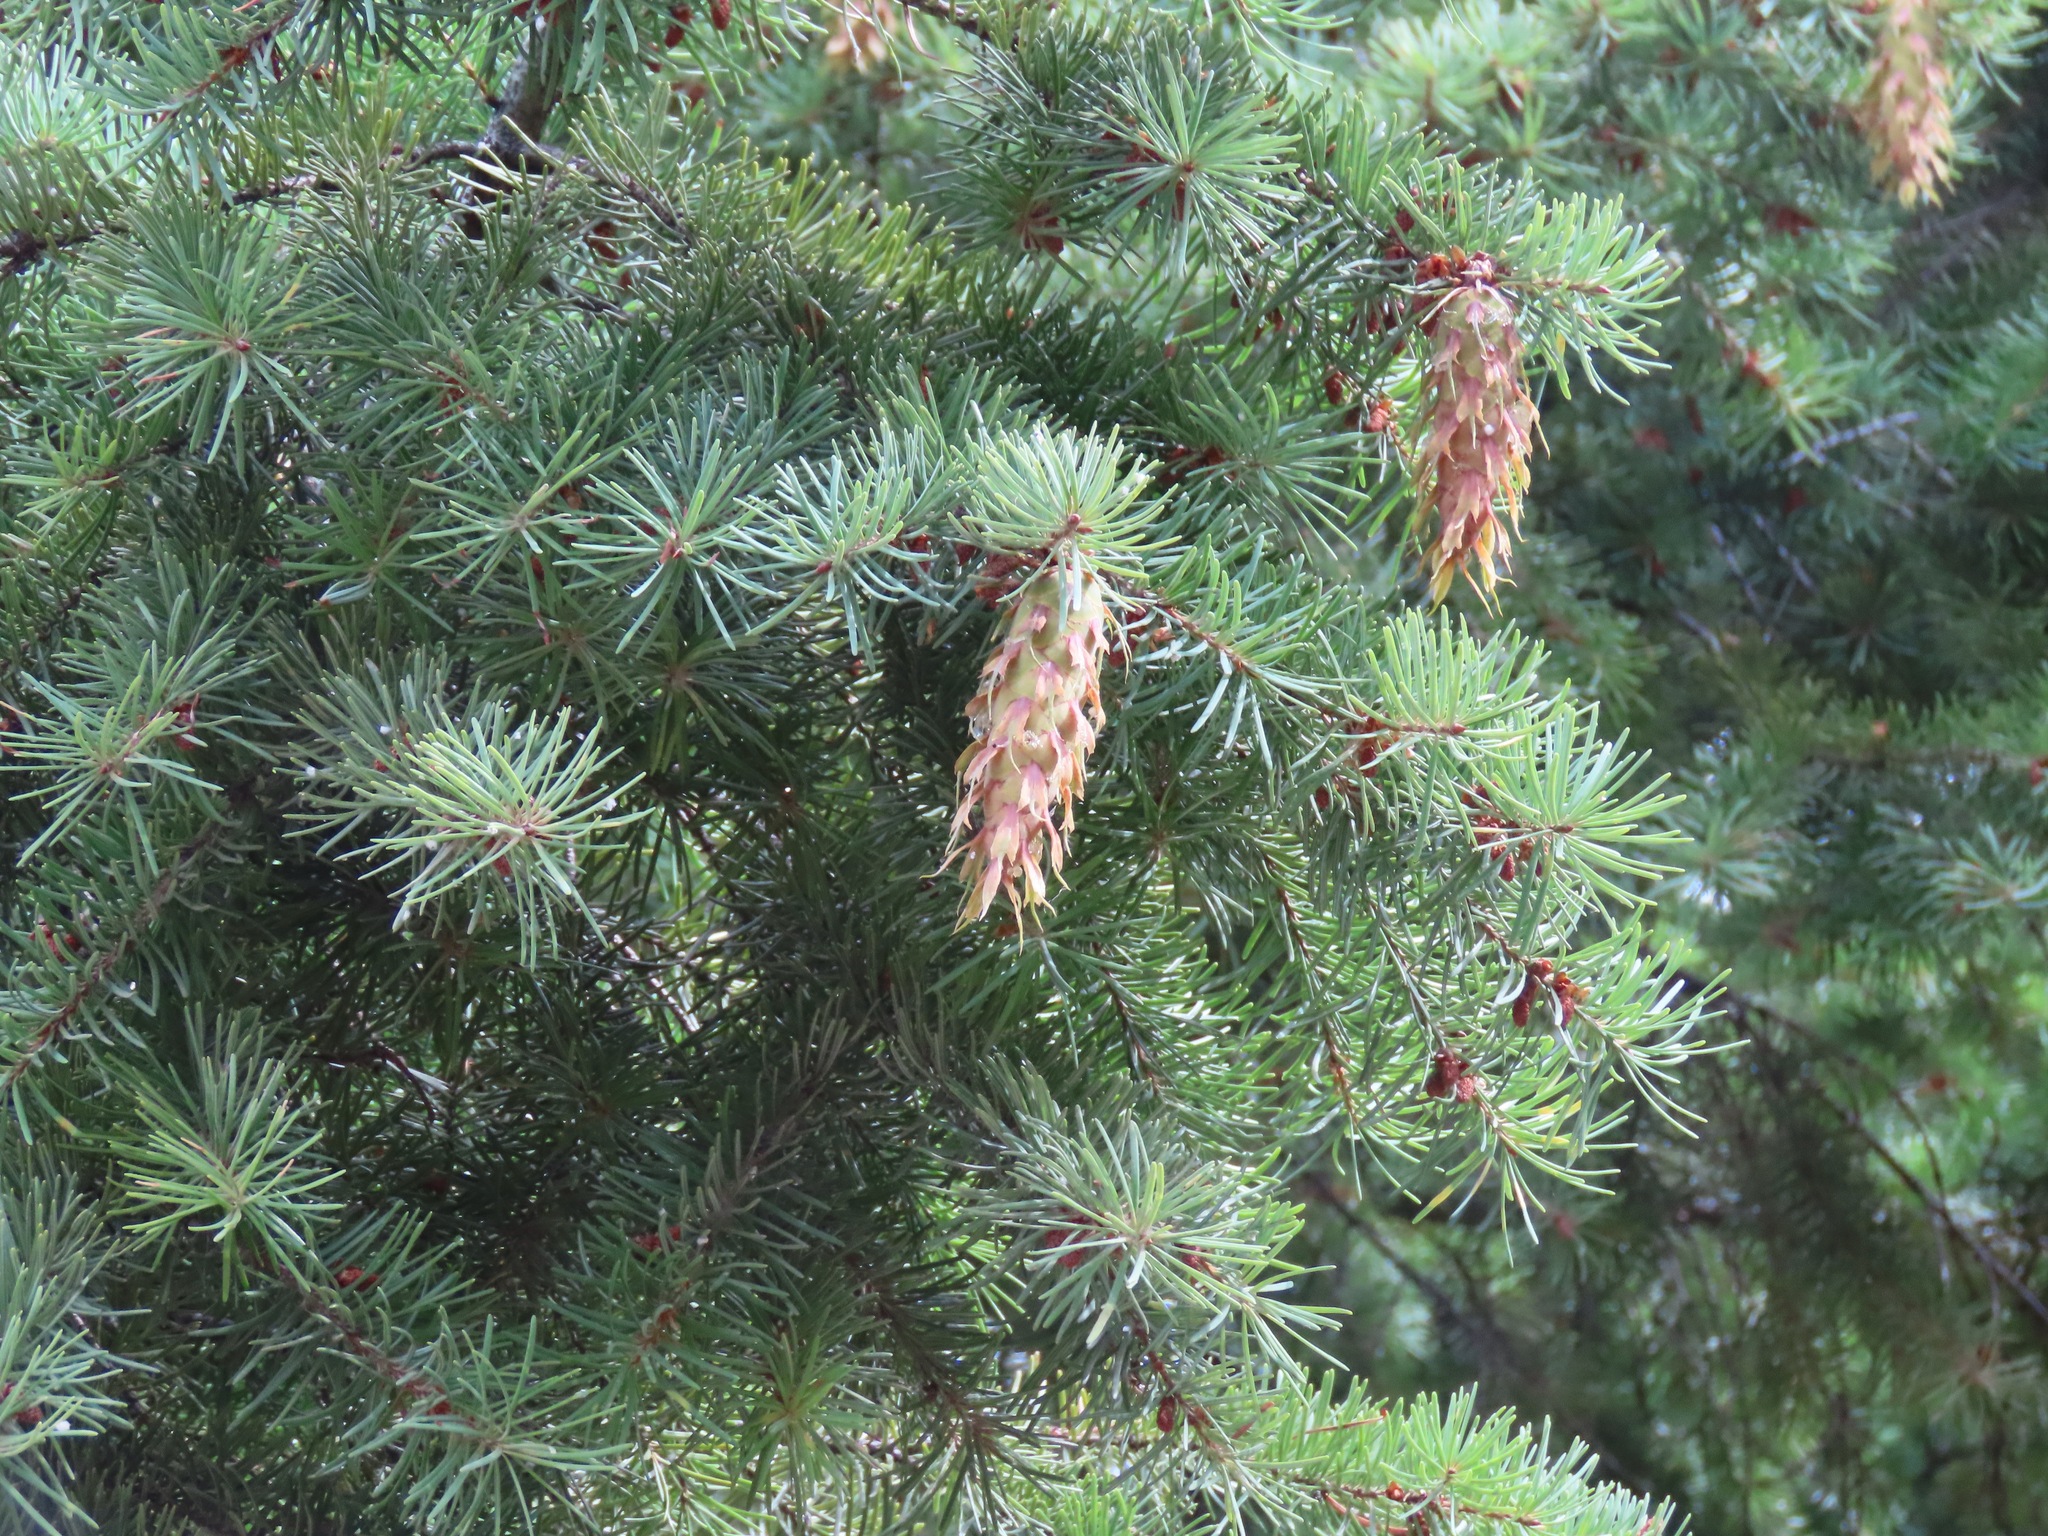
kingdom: Plantae
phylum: Tracheophyta
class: Pinopsida
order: Pinales
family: Pinaceae
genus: Pseudotsuga
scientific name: Pseudotsuga menziesii
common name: Douglas fir
